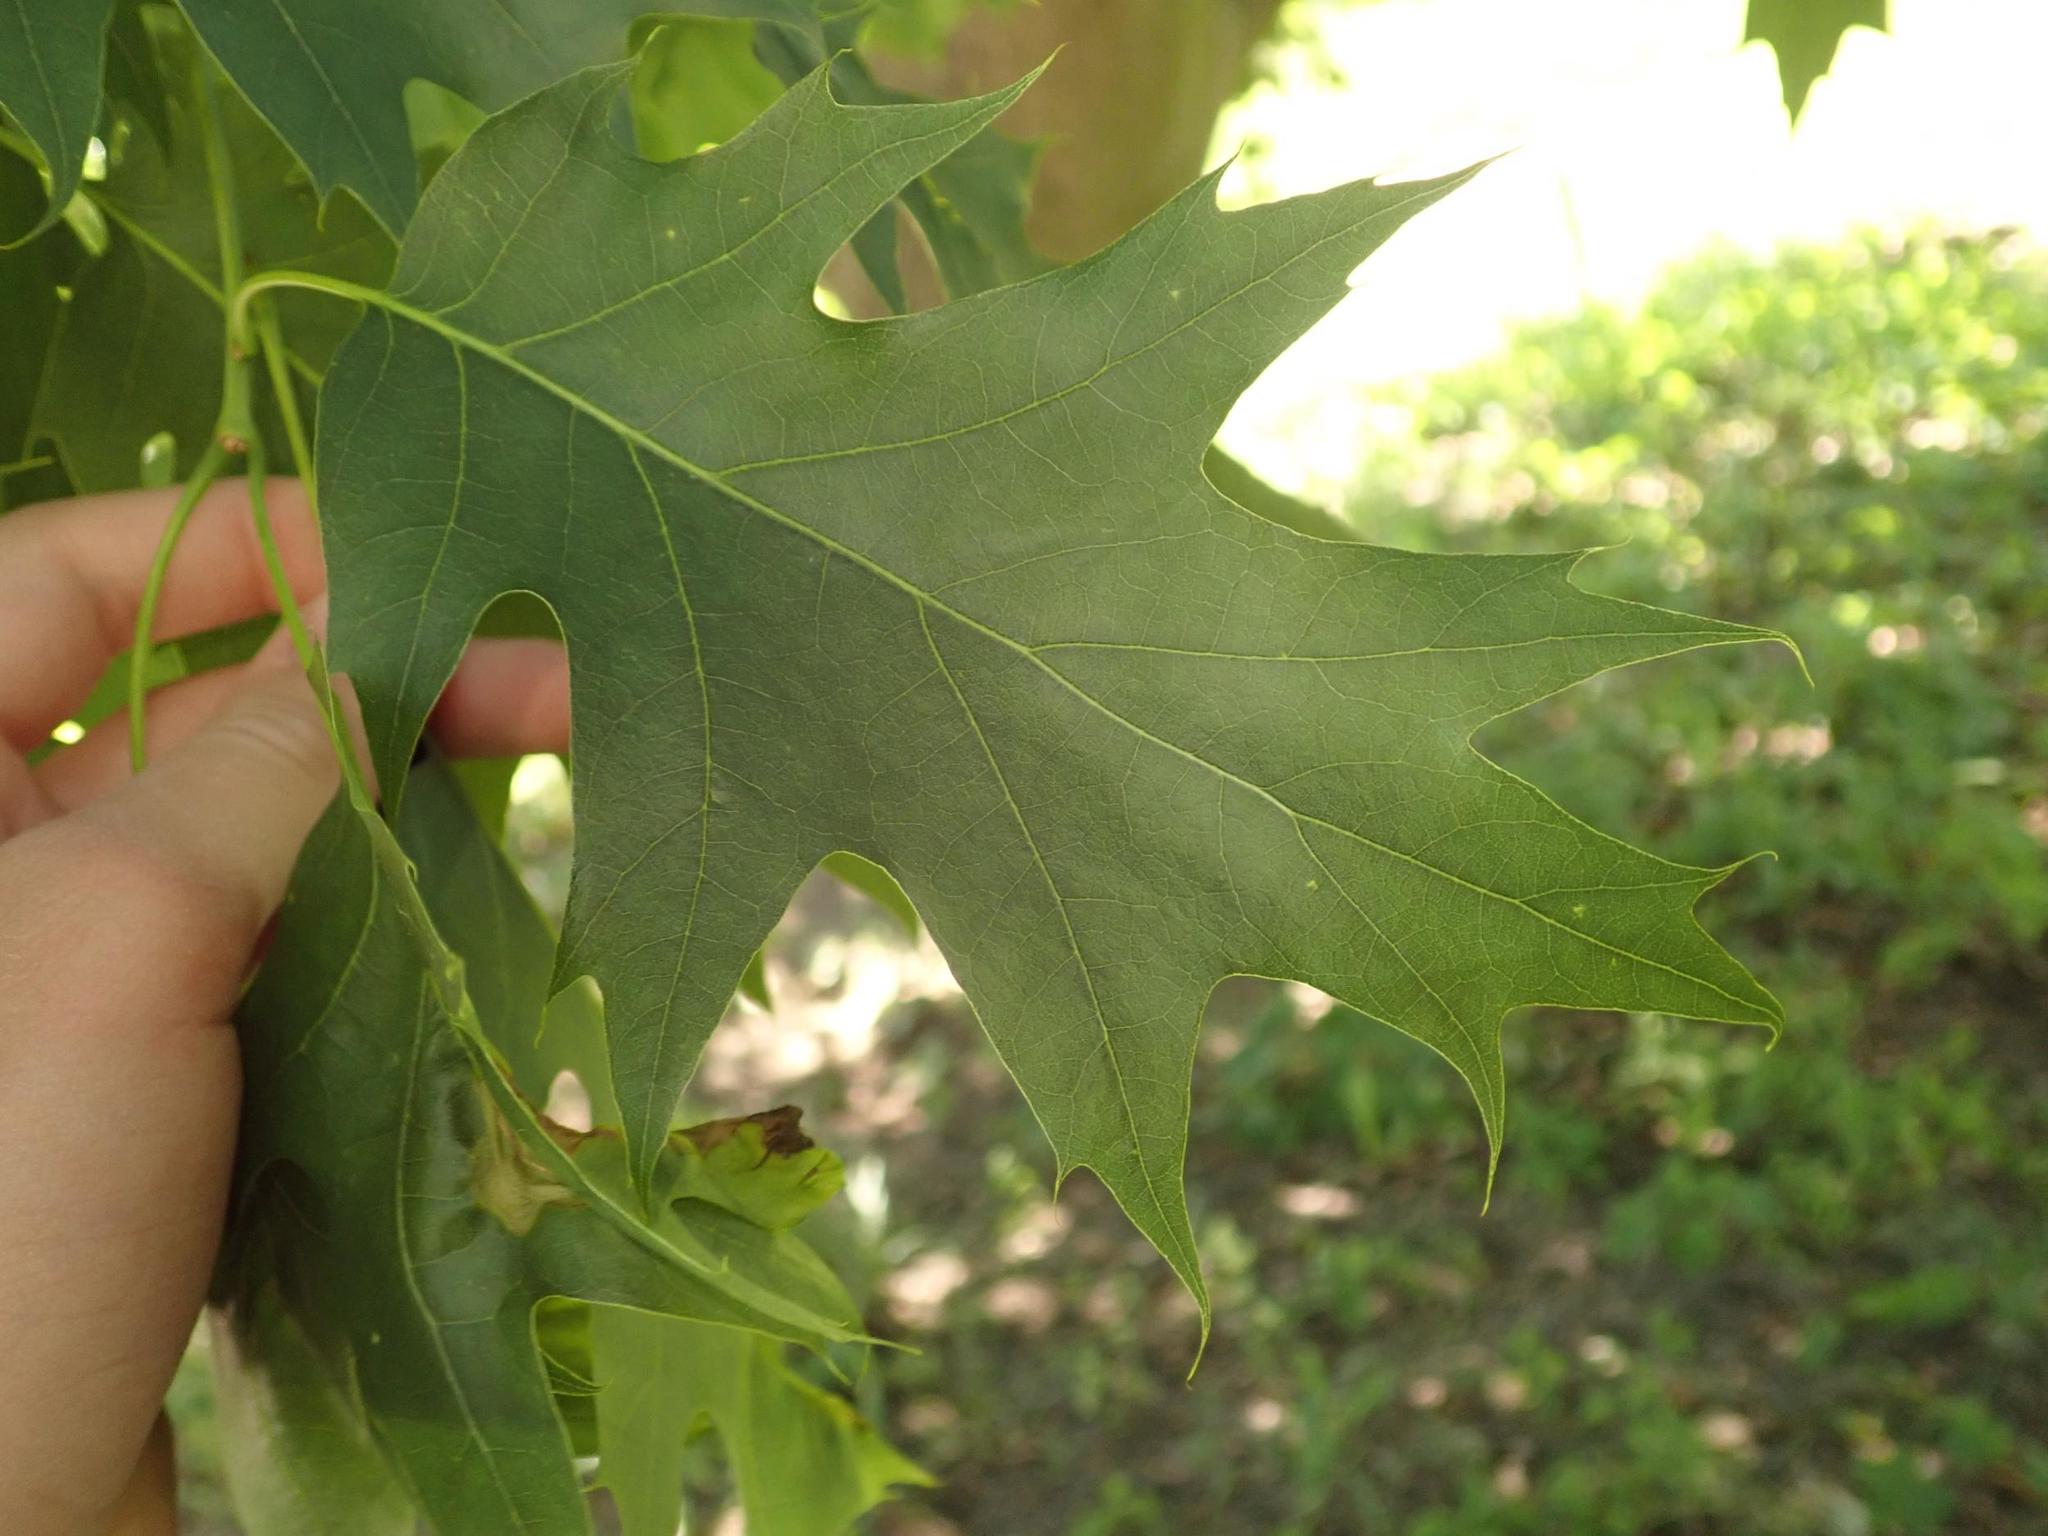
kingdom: Plantae
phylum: Tracheophyta
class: Magnoliopsida
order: Fagales
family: Fagaceae
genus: Quercus
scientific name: Quercus rubra
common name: Red oak
